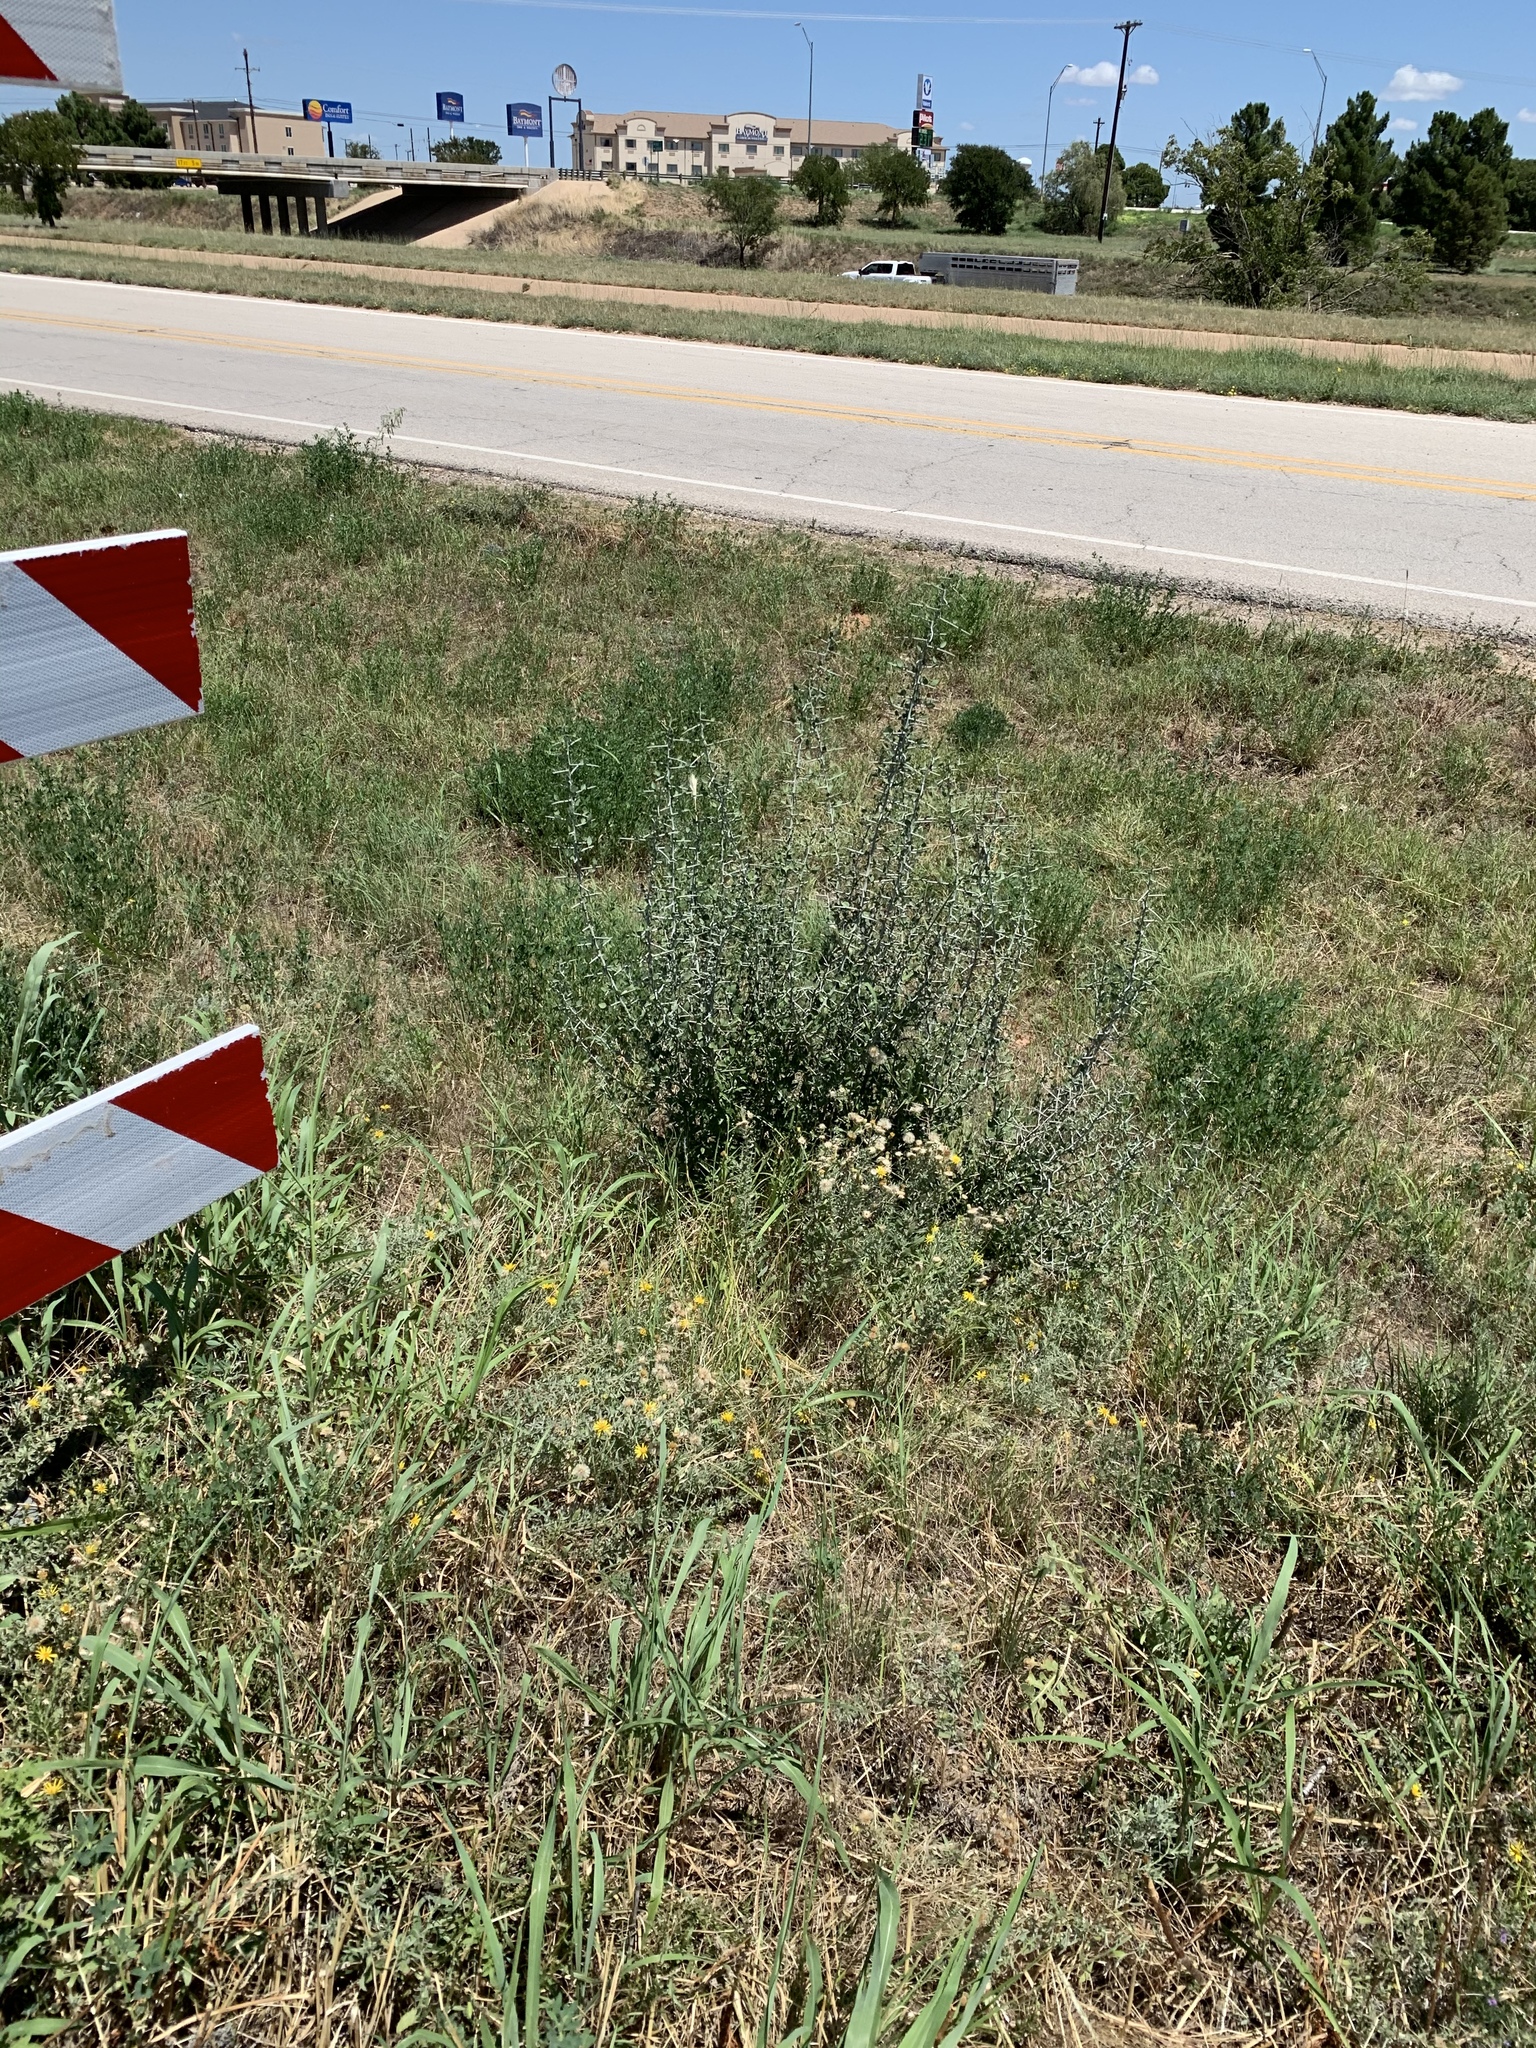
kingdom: Plantae
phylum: Tracheophyta
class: Magnoliopsida
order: Rosales
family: Rhamnaceae
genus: Sarcomphalus
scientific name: Sarcomphalus obtusifolius
